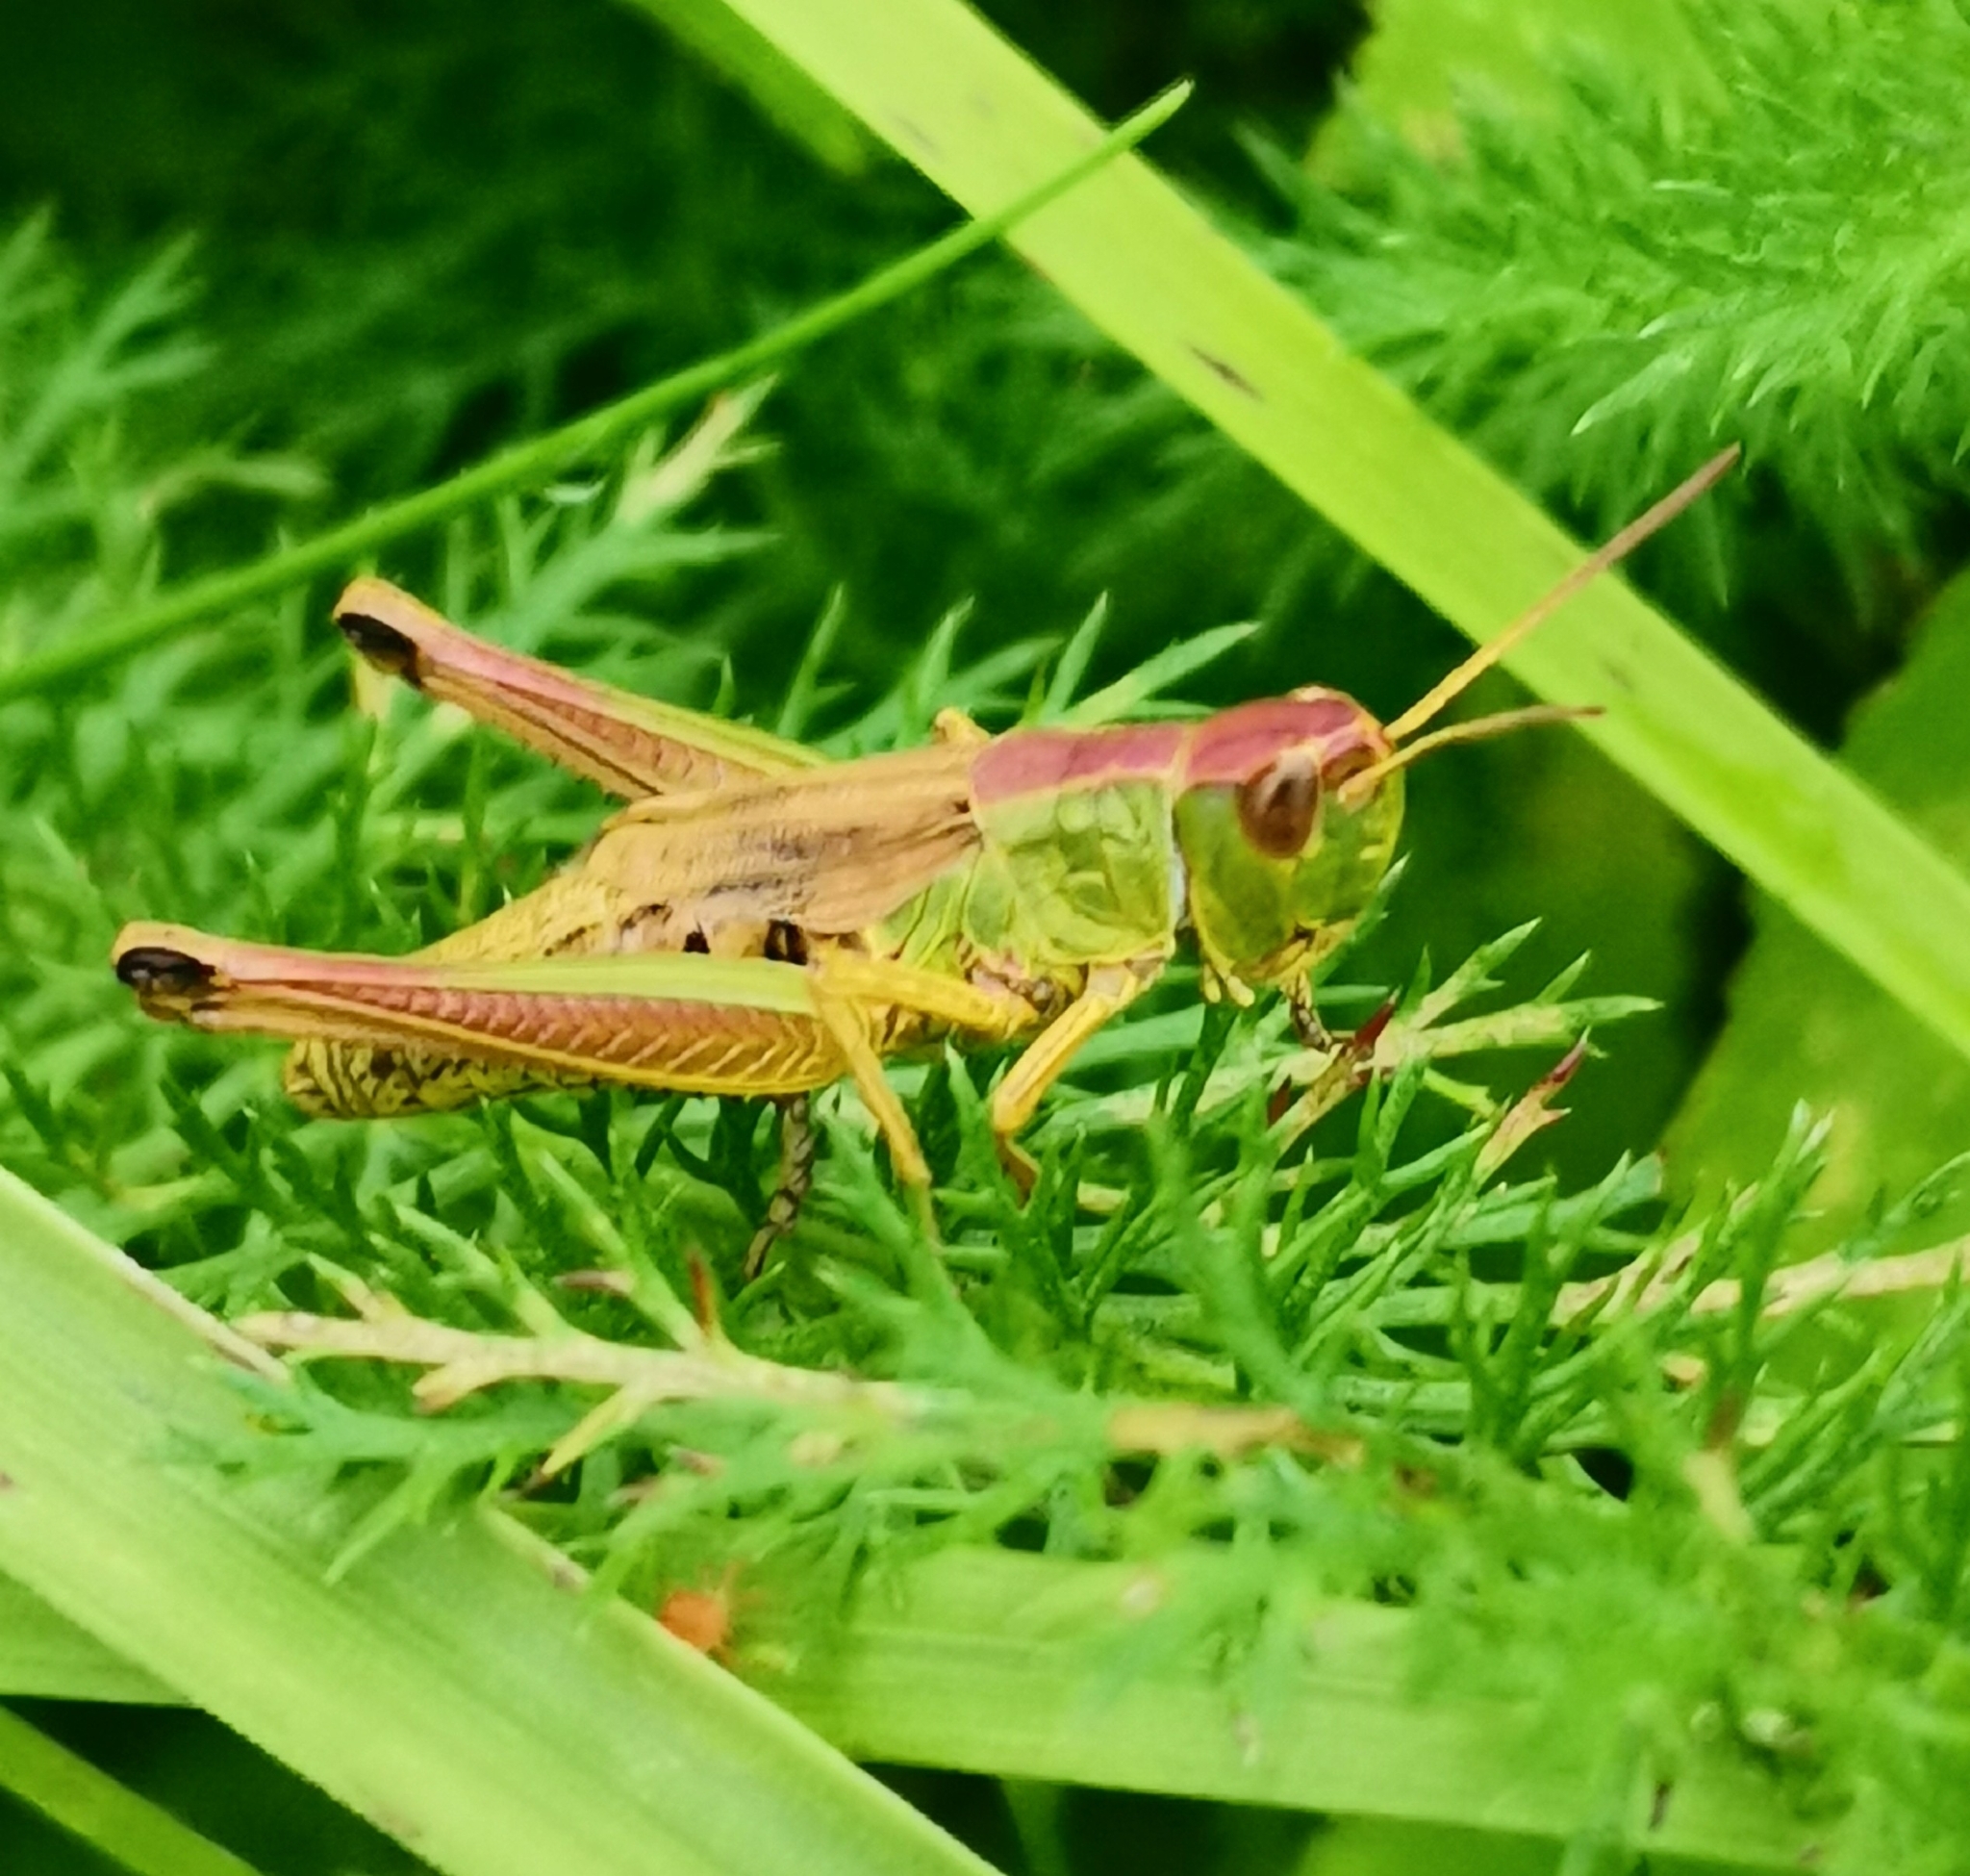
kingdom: Animalia
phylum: Arthropoda
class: Insecta
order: Orthoptera
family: Acrididae
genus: Pseudochorthippus
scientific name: Pseudochorthippus parallelus
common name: Meadow grasshopper
